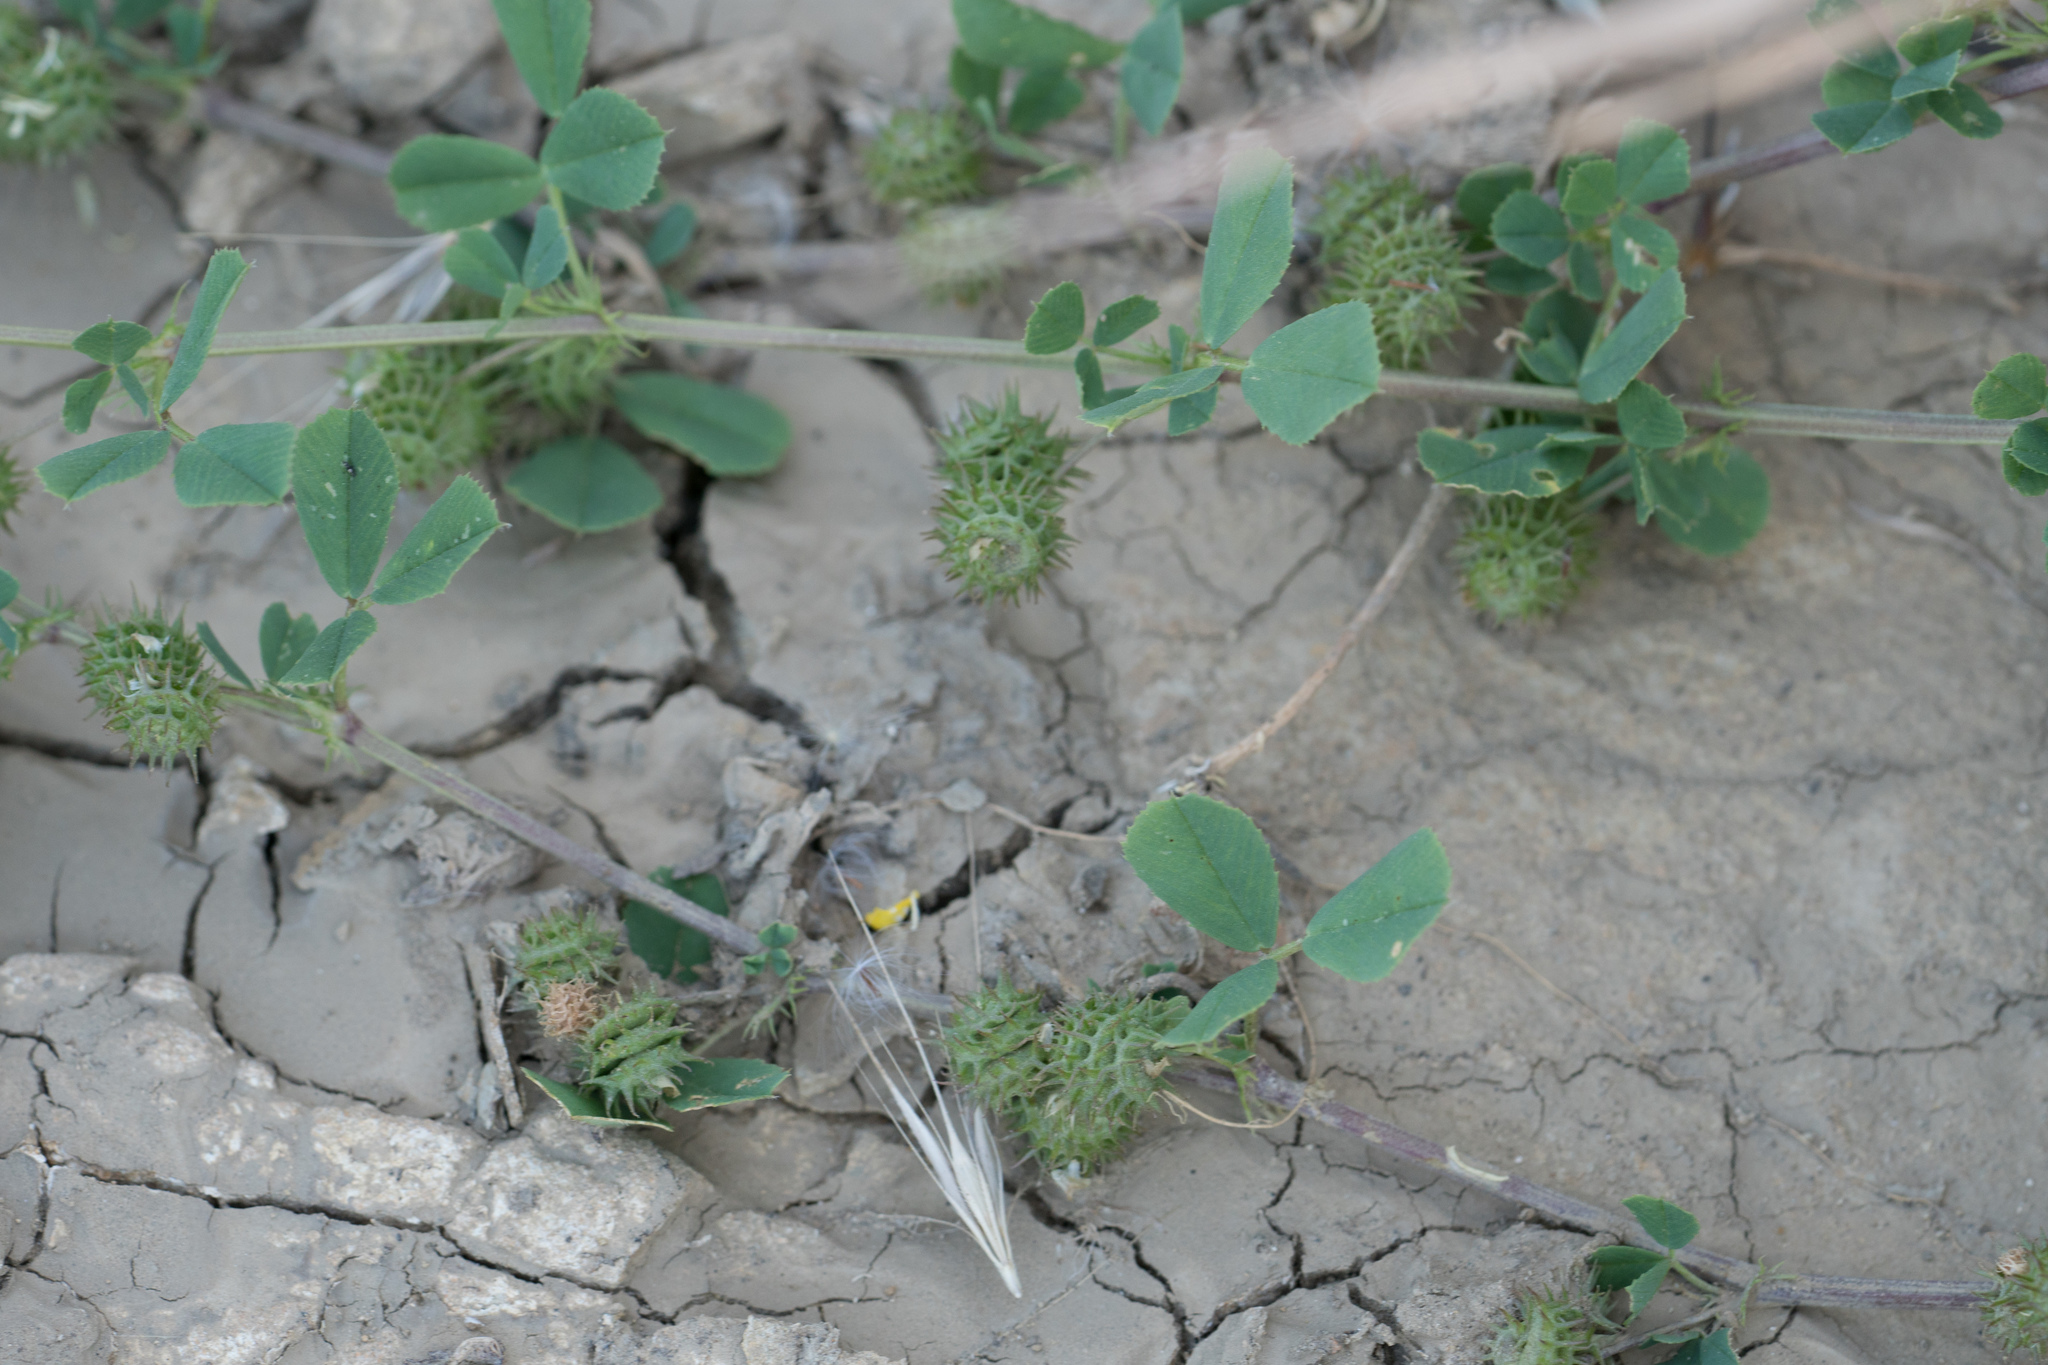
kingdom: Plantae
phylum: Tracheophyta
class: Magnoliopsida
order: Fabales
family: Fabaceae
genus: Medicago
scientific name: Medicago polymorpha
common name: Burclover
